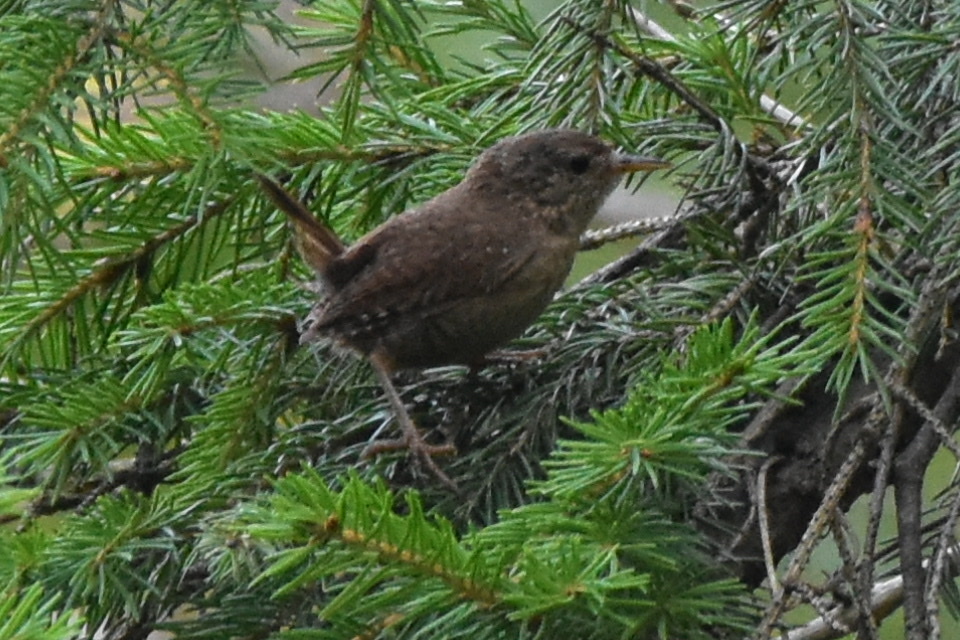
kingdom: Animalia
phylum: Chordata
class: Aves
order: Passeriformes
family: Troglodytidae
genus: Troglodytes
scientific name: Troglodytes troglodytes
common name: Eurasian wren
